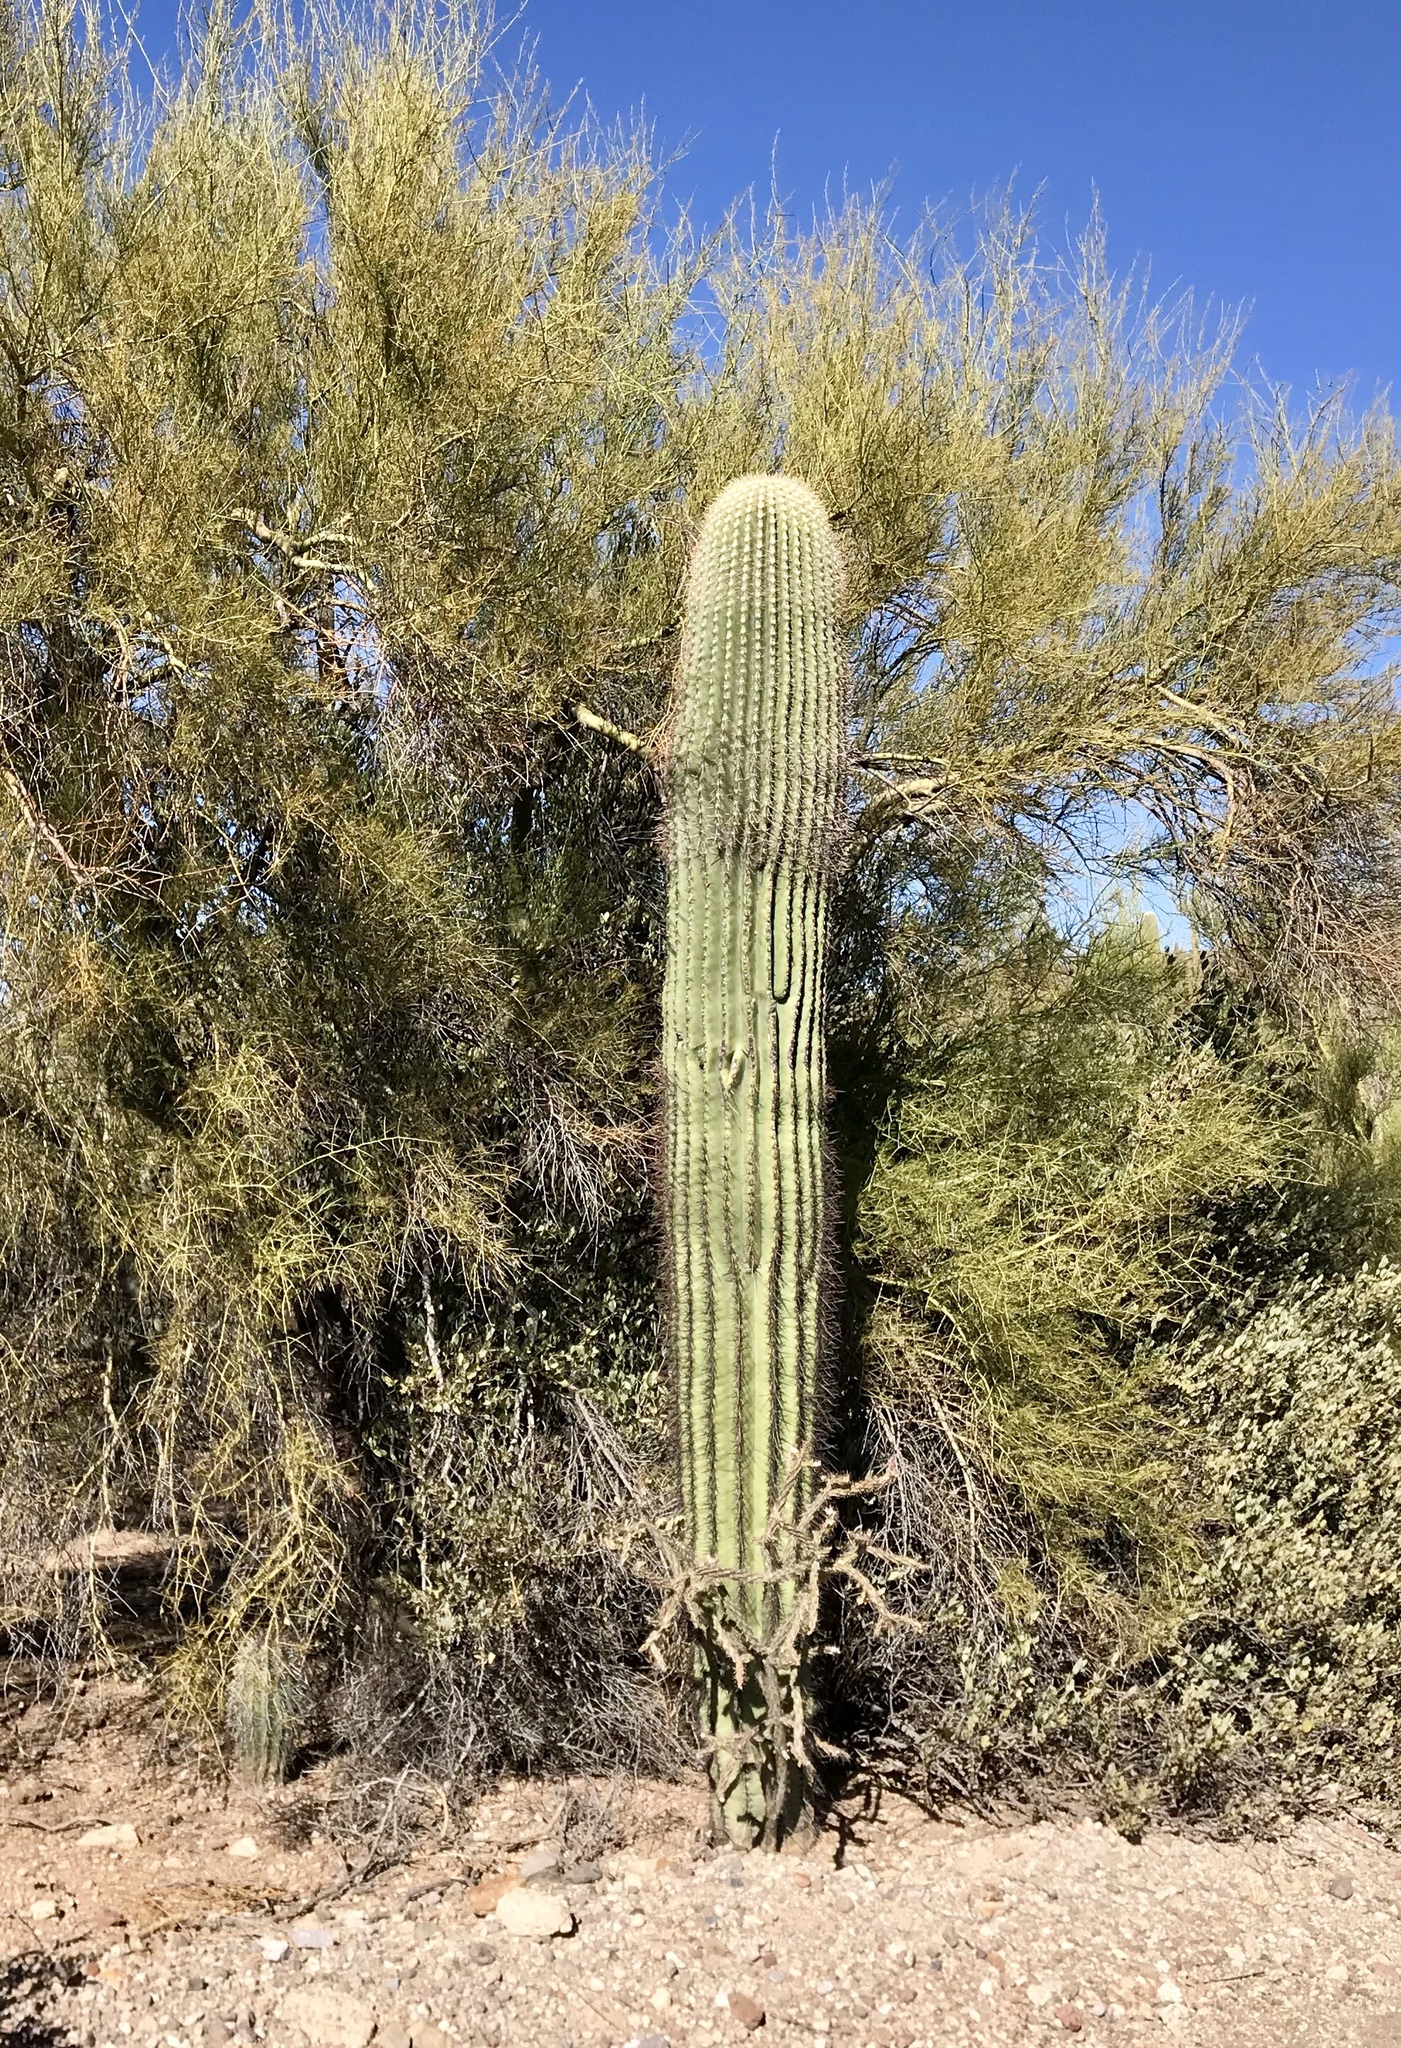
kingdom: Plantae
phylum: Tracheophyta
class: Magnoliopsida
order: Caryophyllales
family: Cactaceae
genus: Carnegiea
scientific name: Carnegiea gigantea
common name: Saguaro
